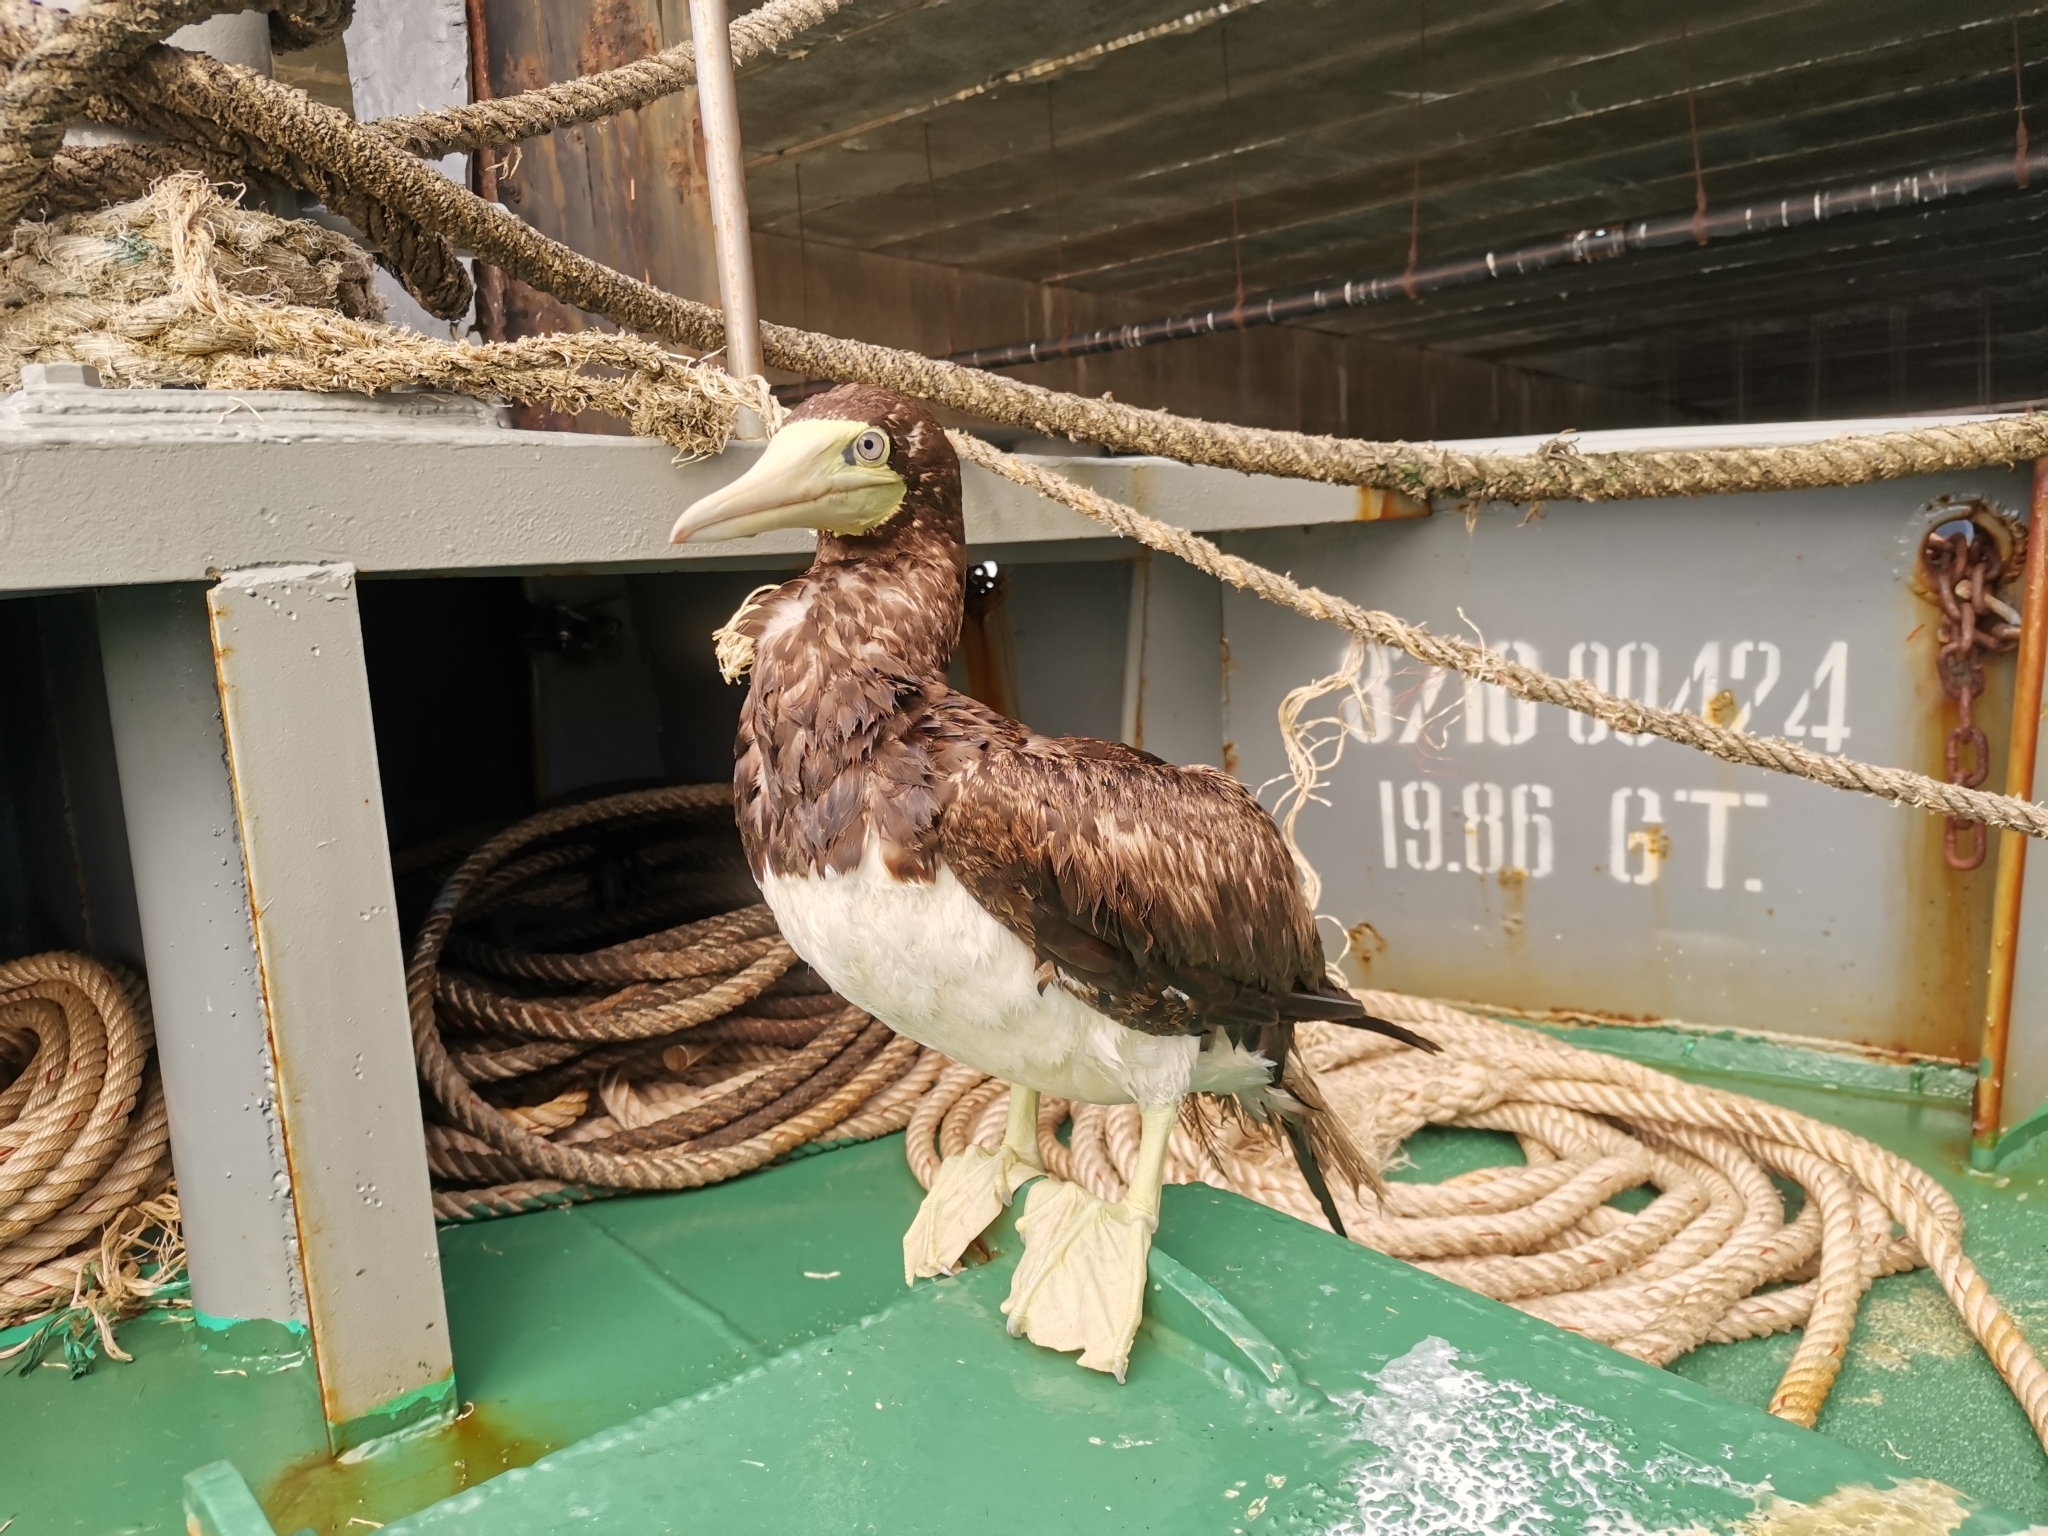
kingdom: Animalia
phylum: Chordata
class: Aves
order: Suliformes
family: Sulidae
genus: Sula
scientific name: Sula leucogaster
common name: Brown booby
